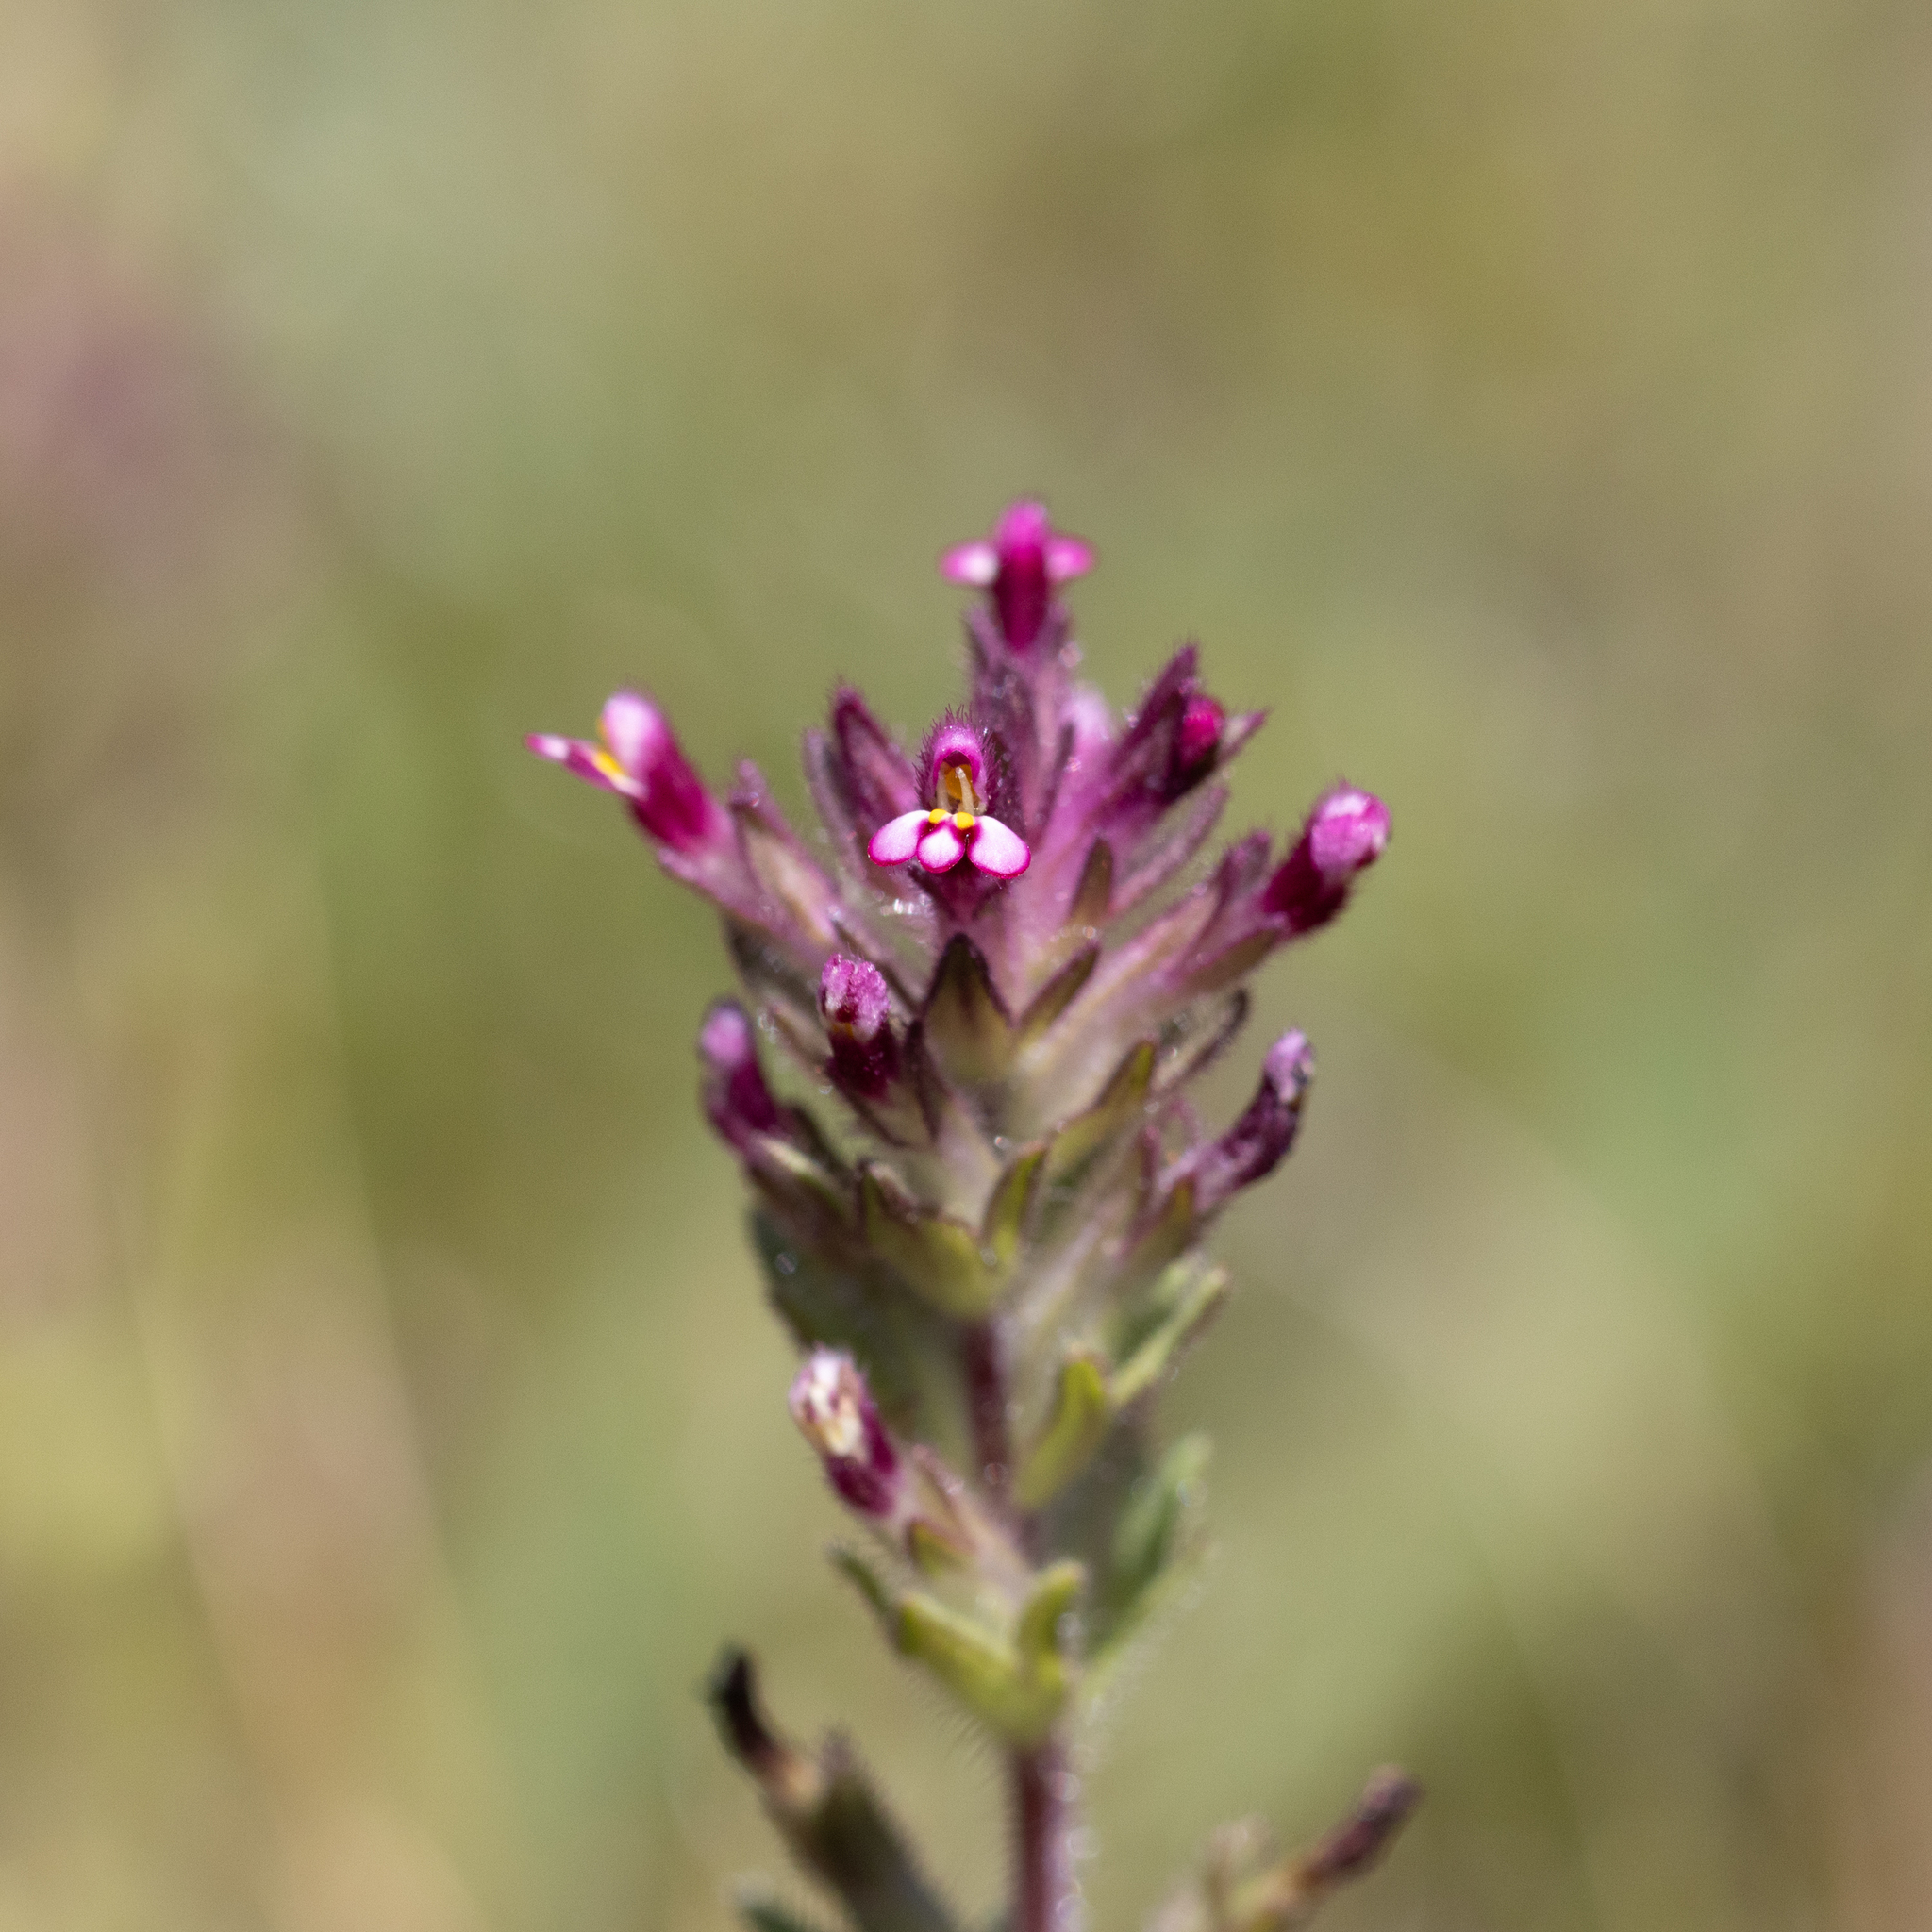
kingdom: Plantae
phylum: Tracheophyta
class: Magnoliopsida
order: Lamiales
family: Orobanchaceae
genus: Parentucellia
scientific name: Parentucellia latifolia
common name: Broadleaf glandweed
